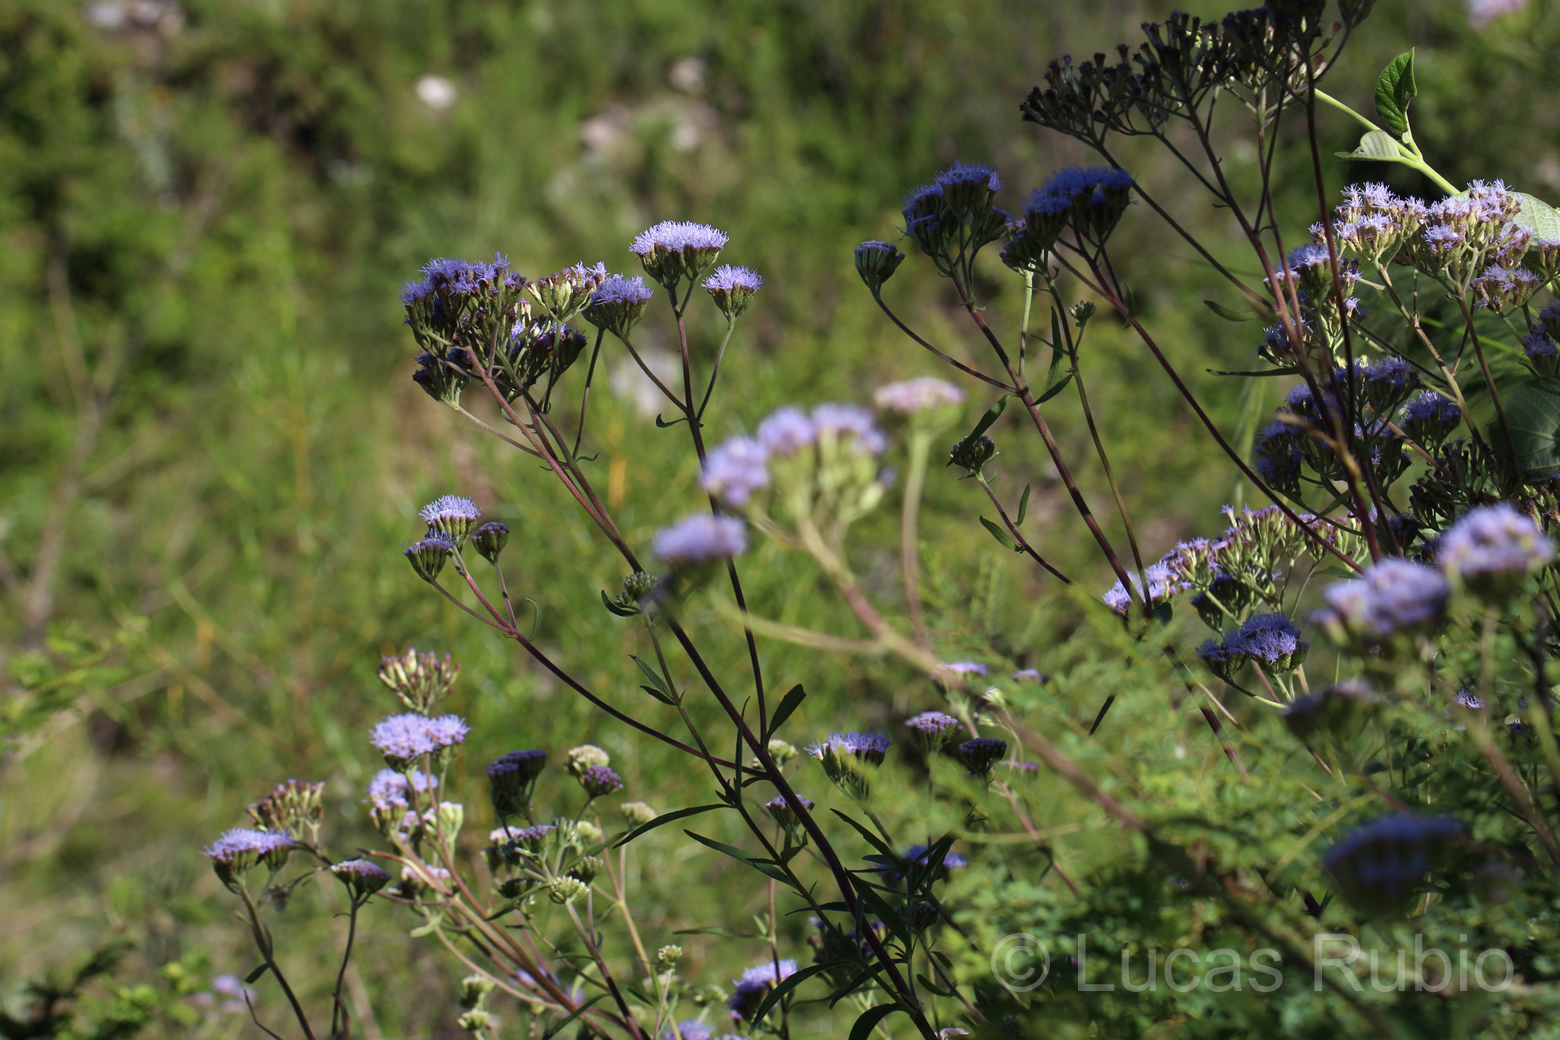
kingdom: Plantae
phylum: Tracheophyta
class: Magnoliopsida
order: Asterales
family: Asteraceae
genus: Chromolaena
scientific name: Chromolaena arnottiana
